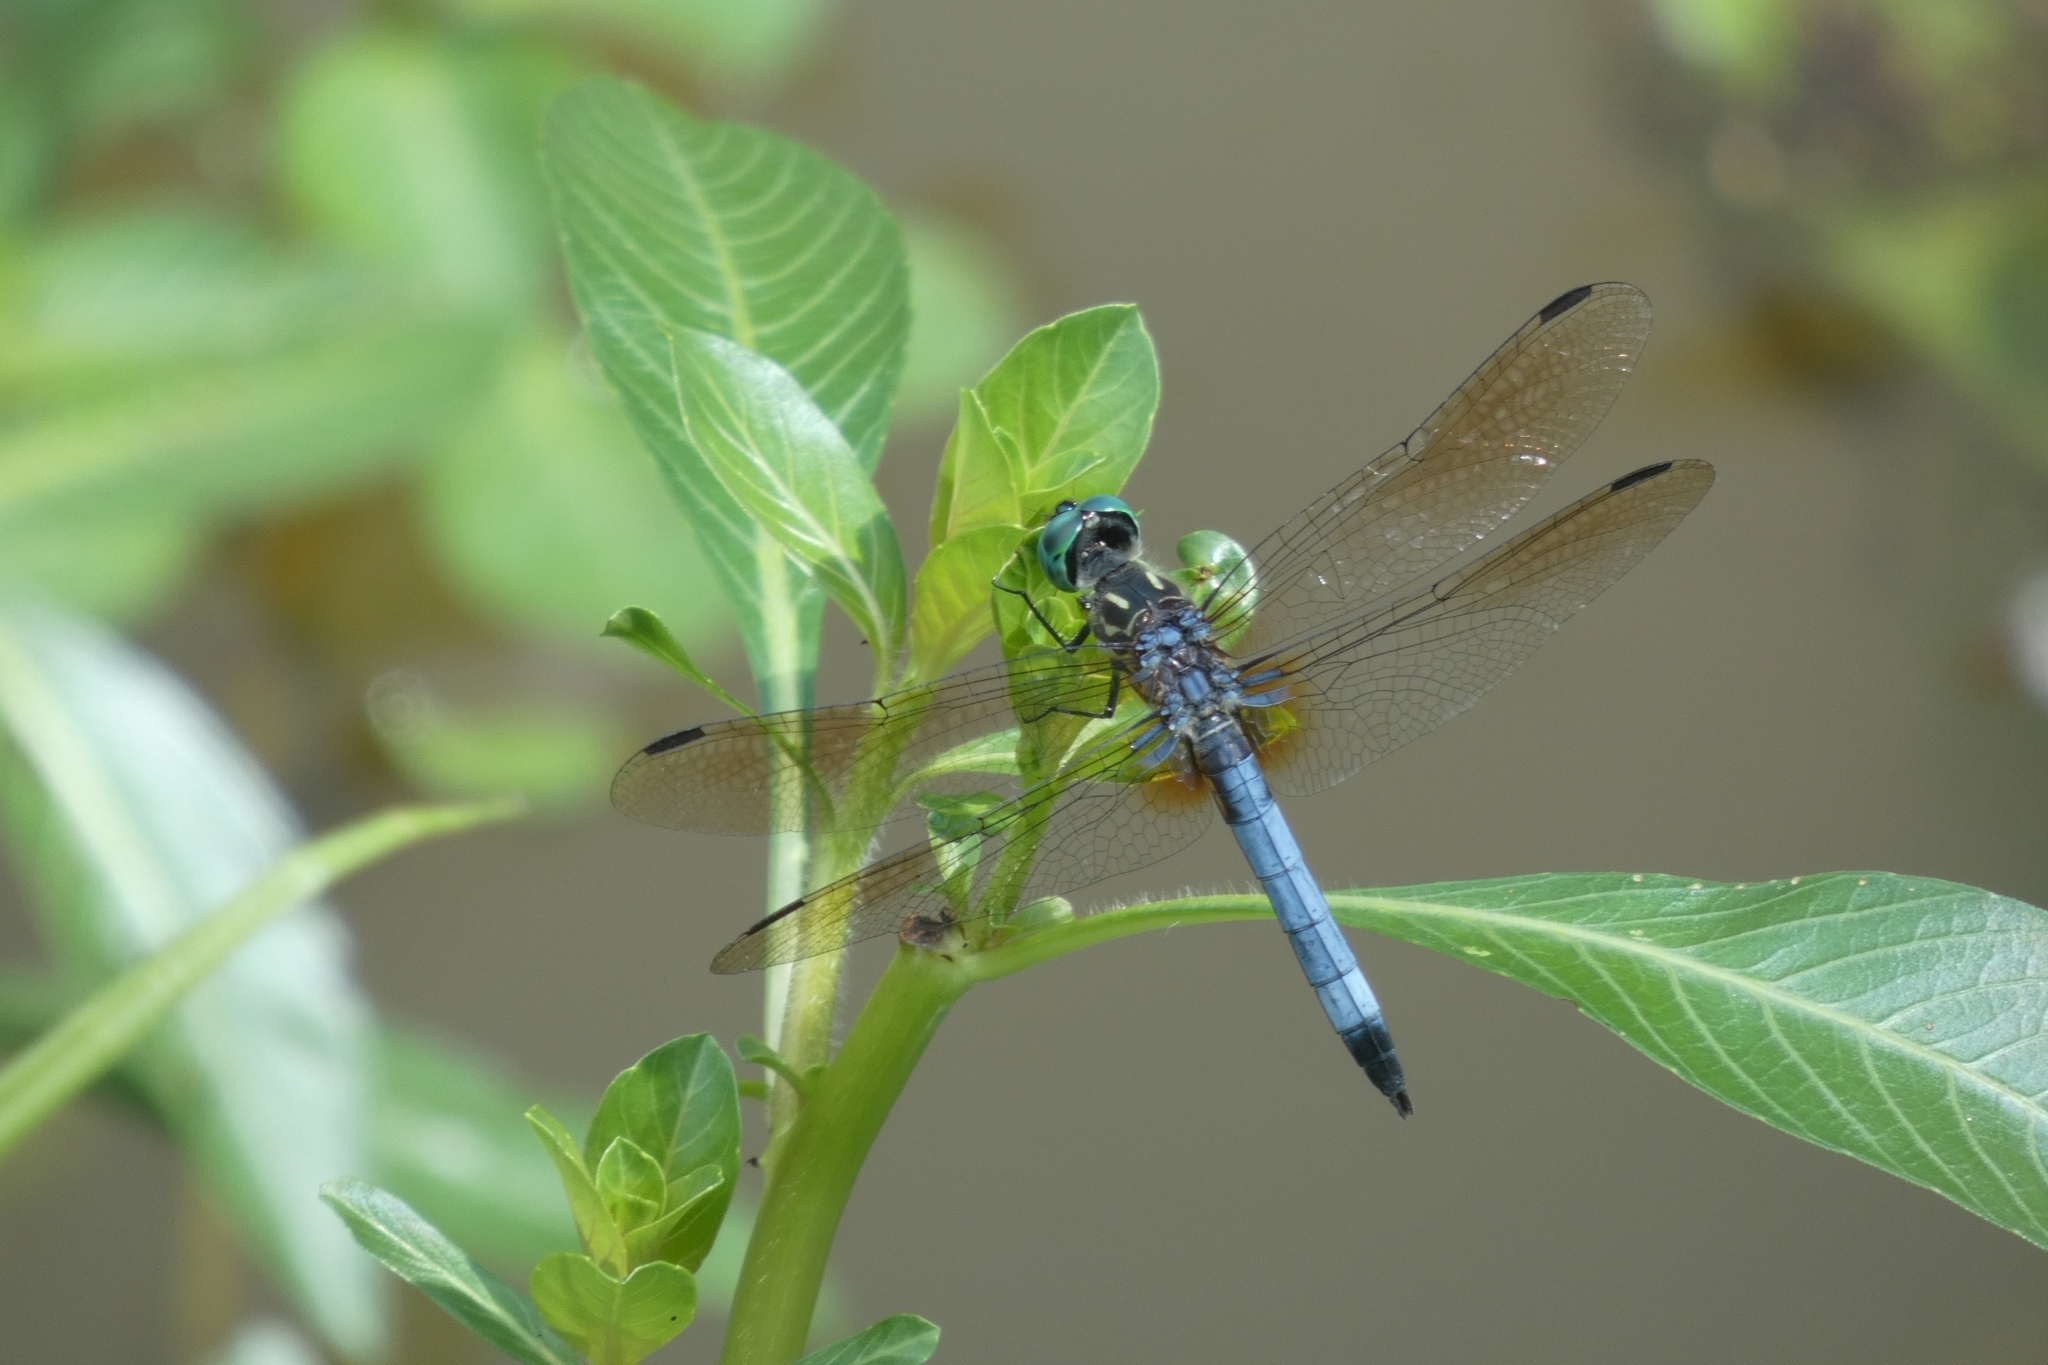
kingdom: Animalia
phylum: Arthropoda
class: Insecta
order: Odonata
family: Libellulidae
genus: Pachydiplax
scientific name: Pachydiplax longipennis
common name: Blue dasher
